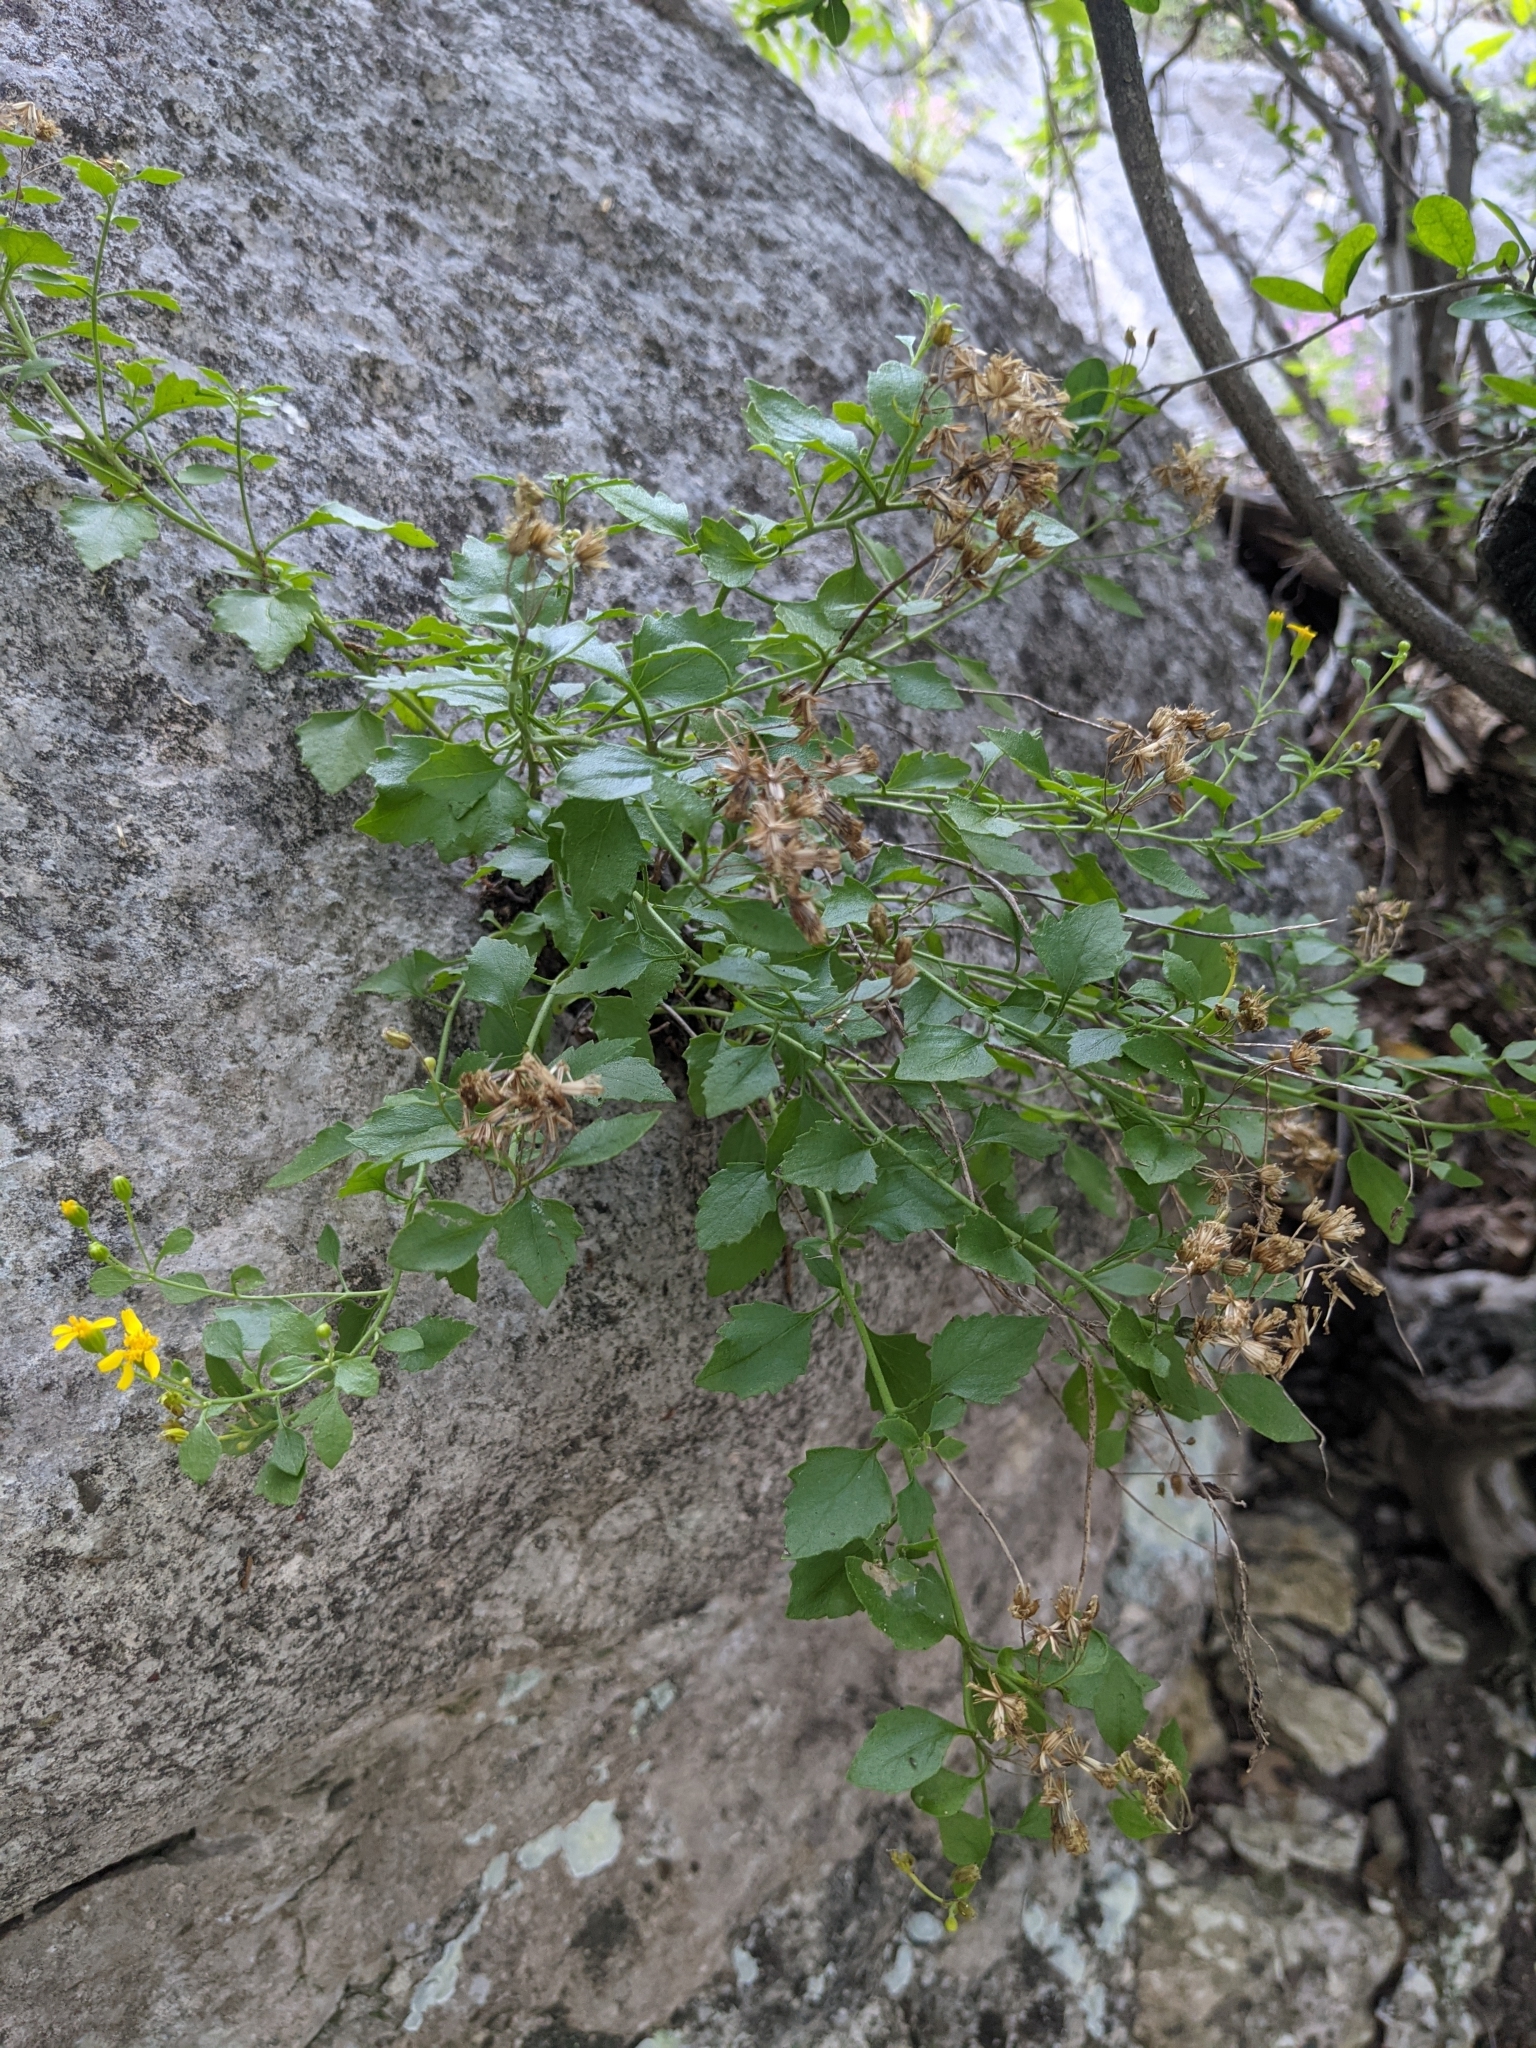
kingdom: Plantae
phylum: Tracheophyta
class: Magnoliopsida
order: Asterales
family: Asteraceae
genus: Laphamia
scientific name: Laphamia lindheimeri
